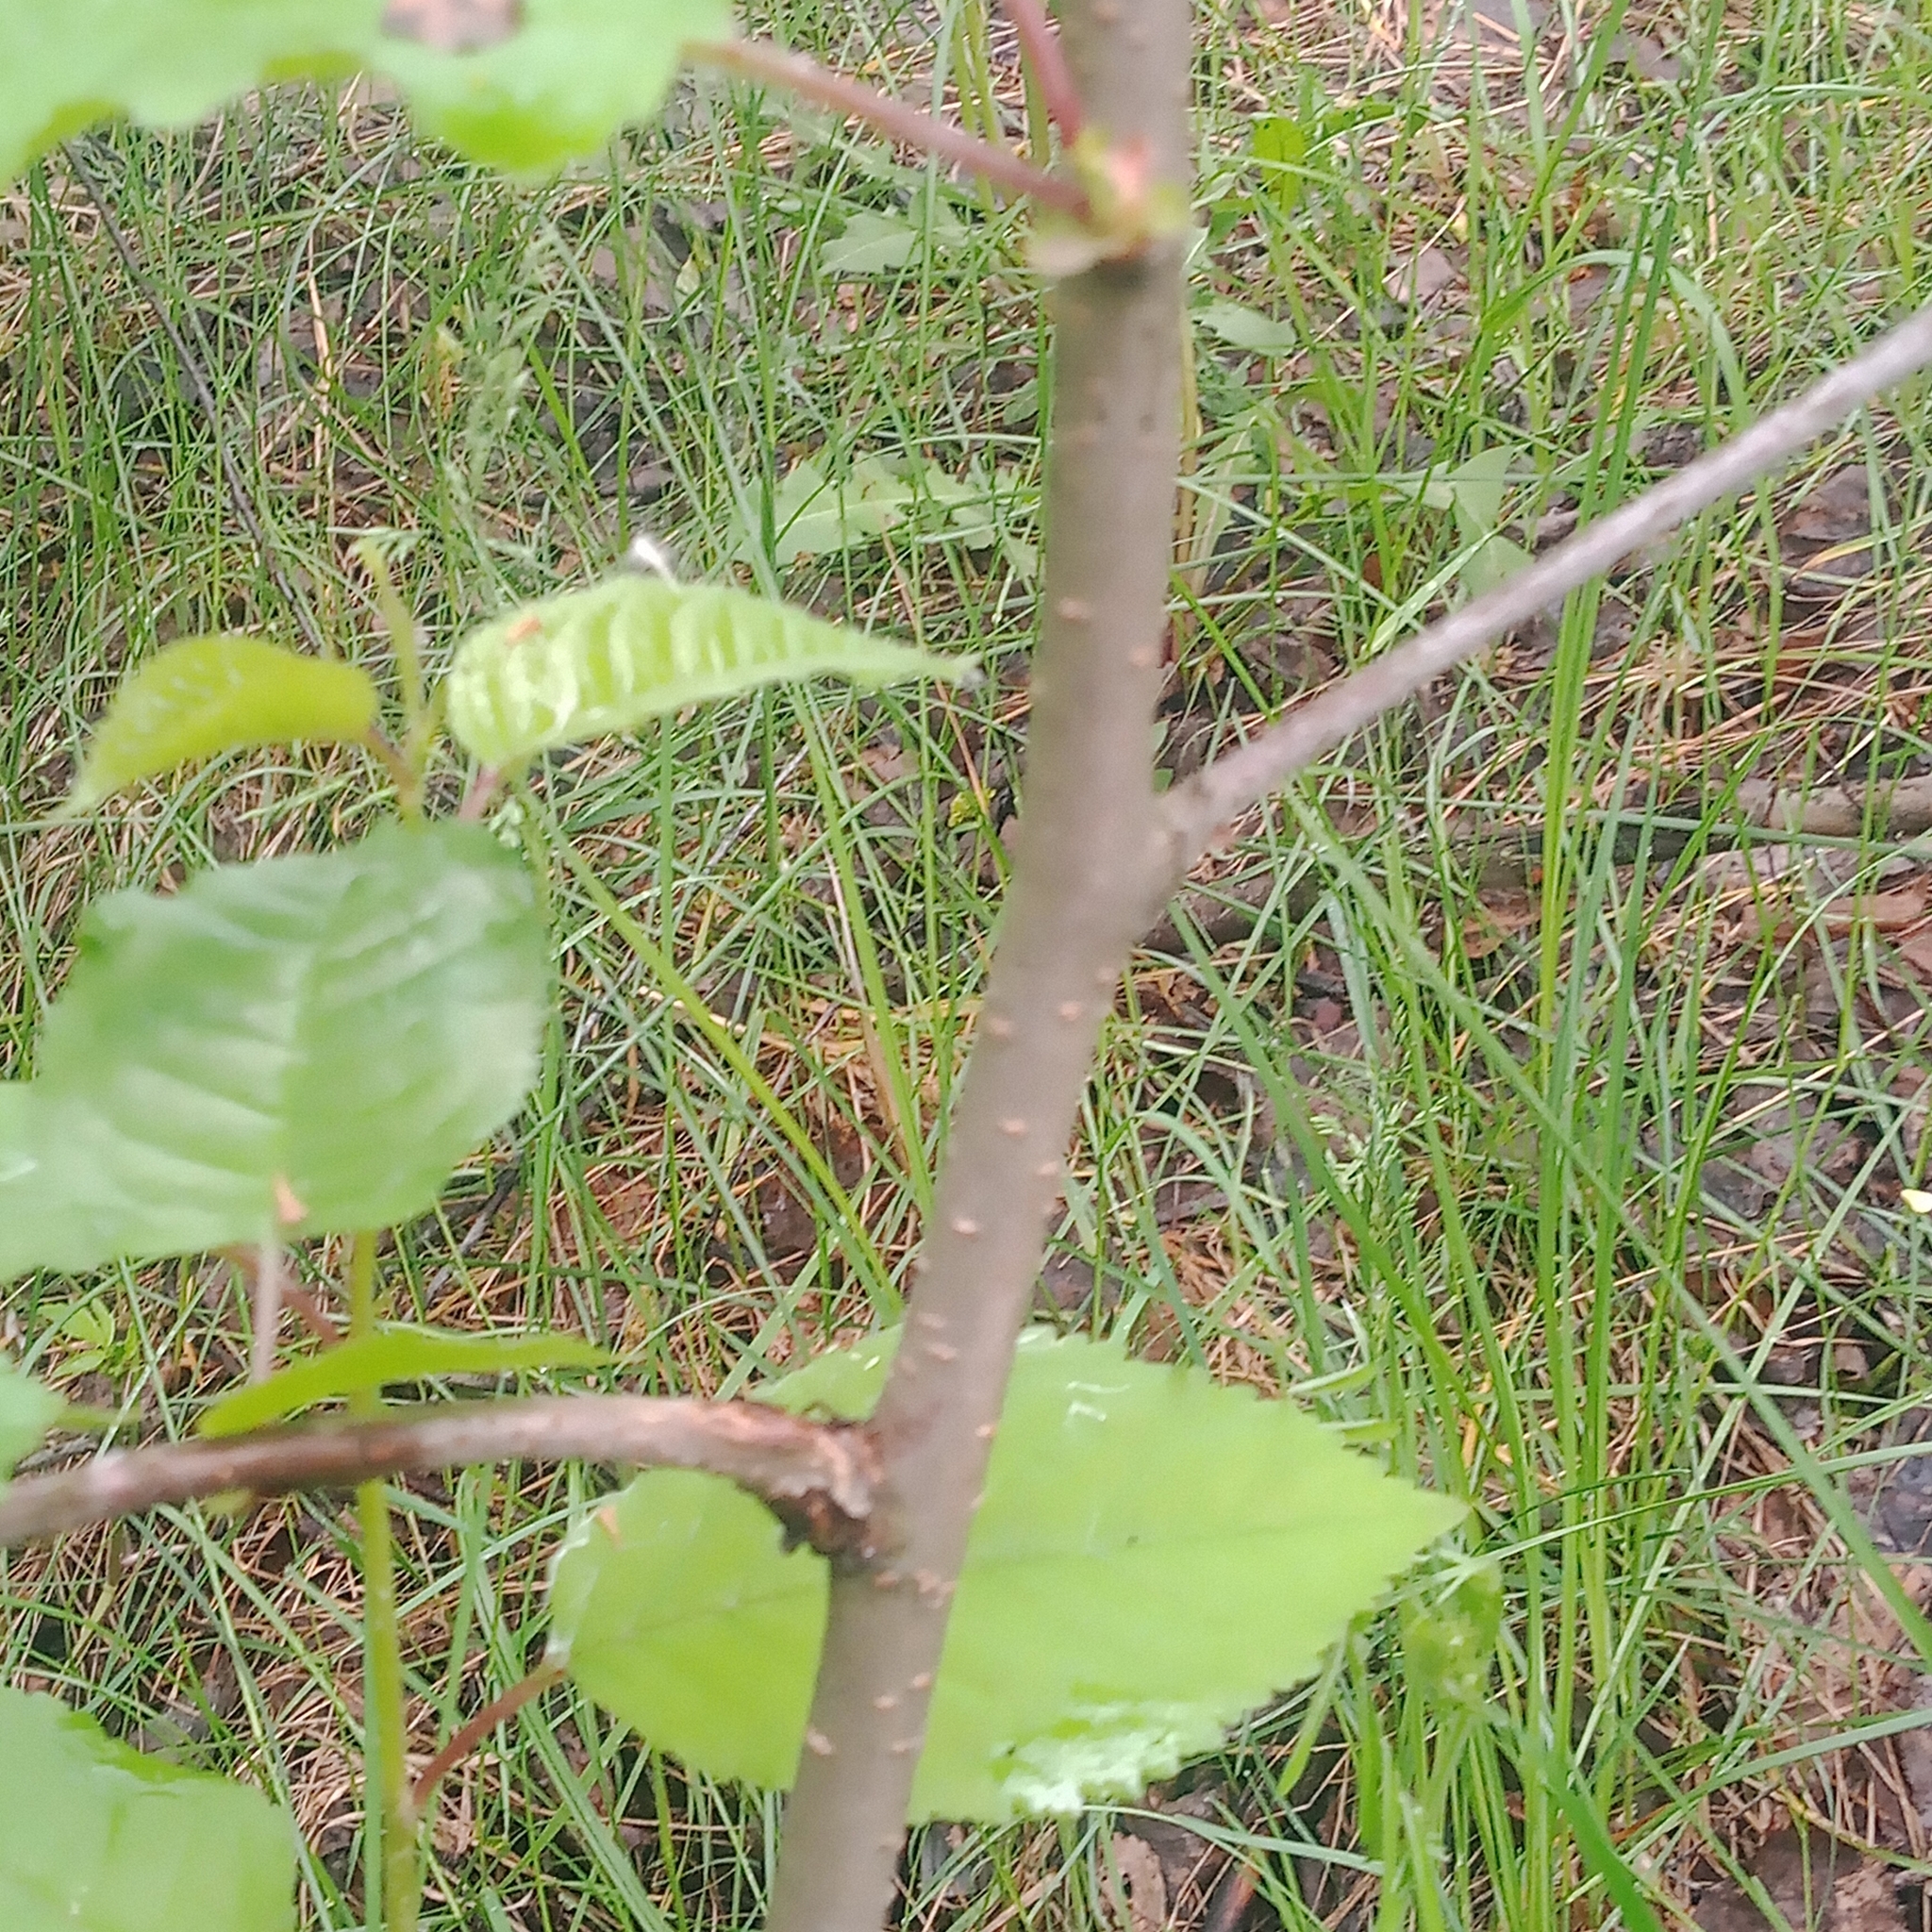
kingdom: Plantae
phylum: Tracheophyta
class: Magnoliopsida
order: Rosales
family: Rosaceae
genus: Prunus
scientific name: Prunus avium
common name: Sweet cherry
